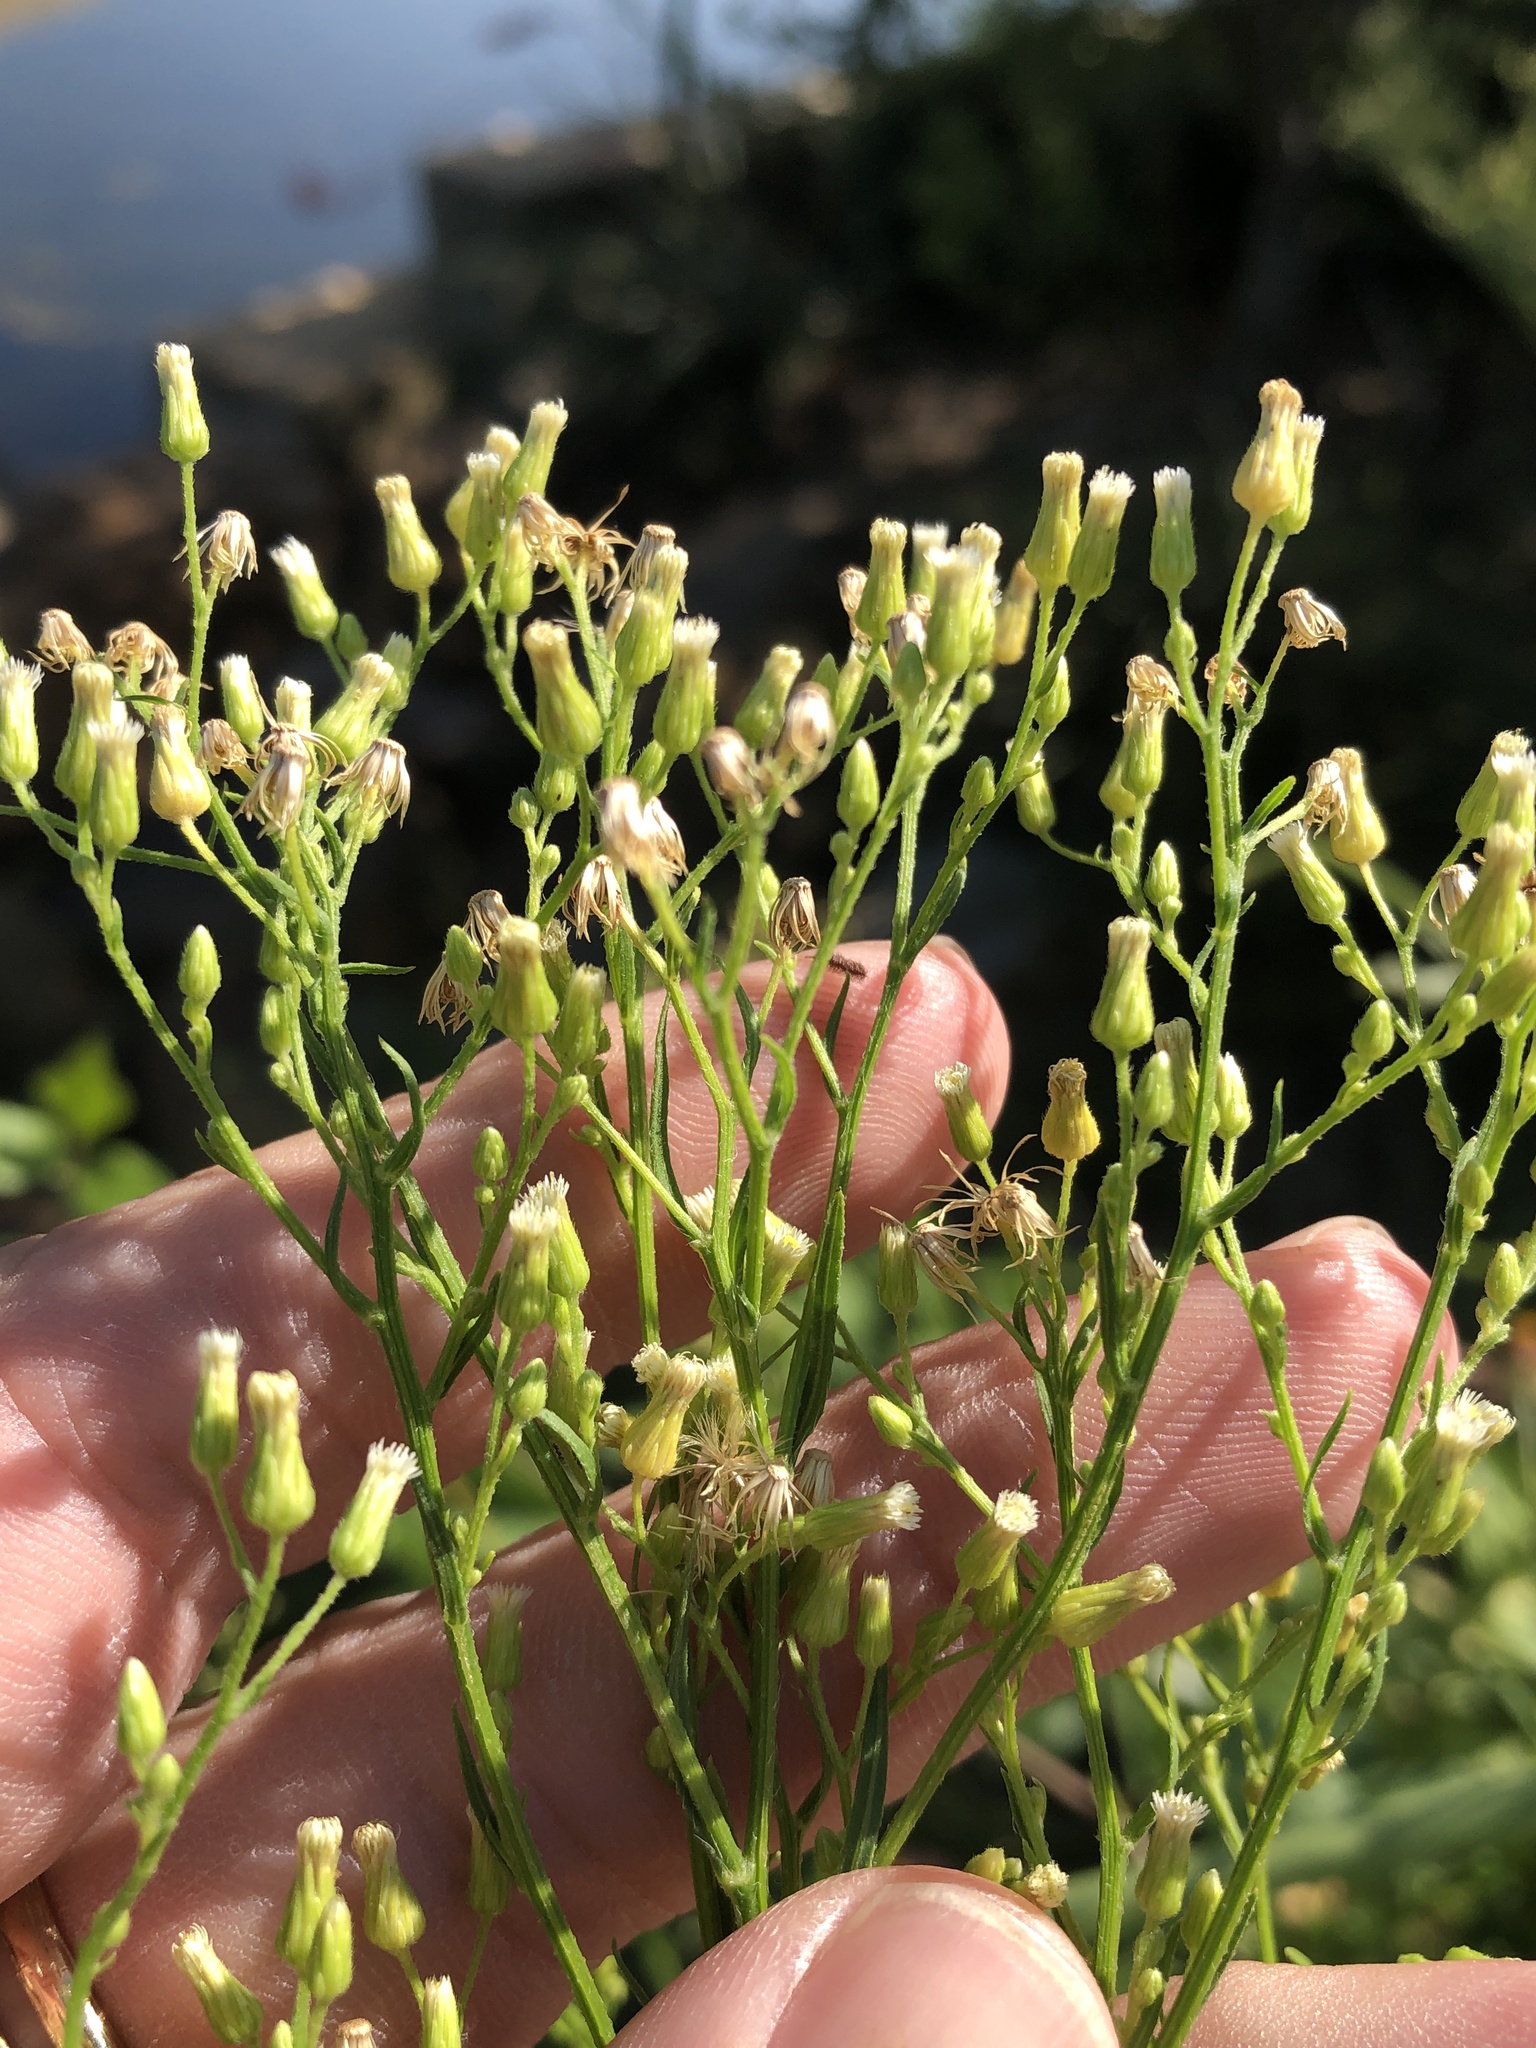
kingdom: Plantae
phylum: Tracheophyta
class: Magnoliopsida
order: Asterales
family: Asteraceae
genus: Erigeron
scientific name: Erigeron canadensis
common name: Canadian fleabane
